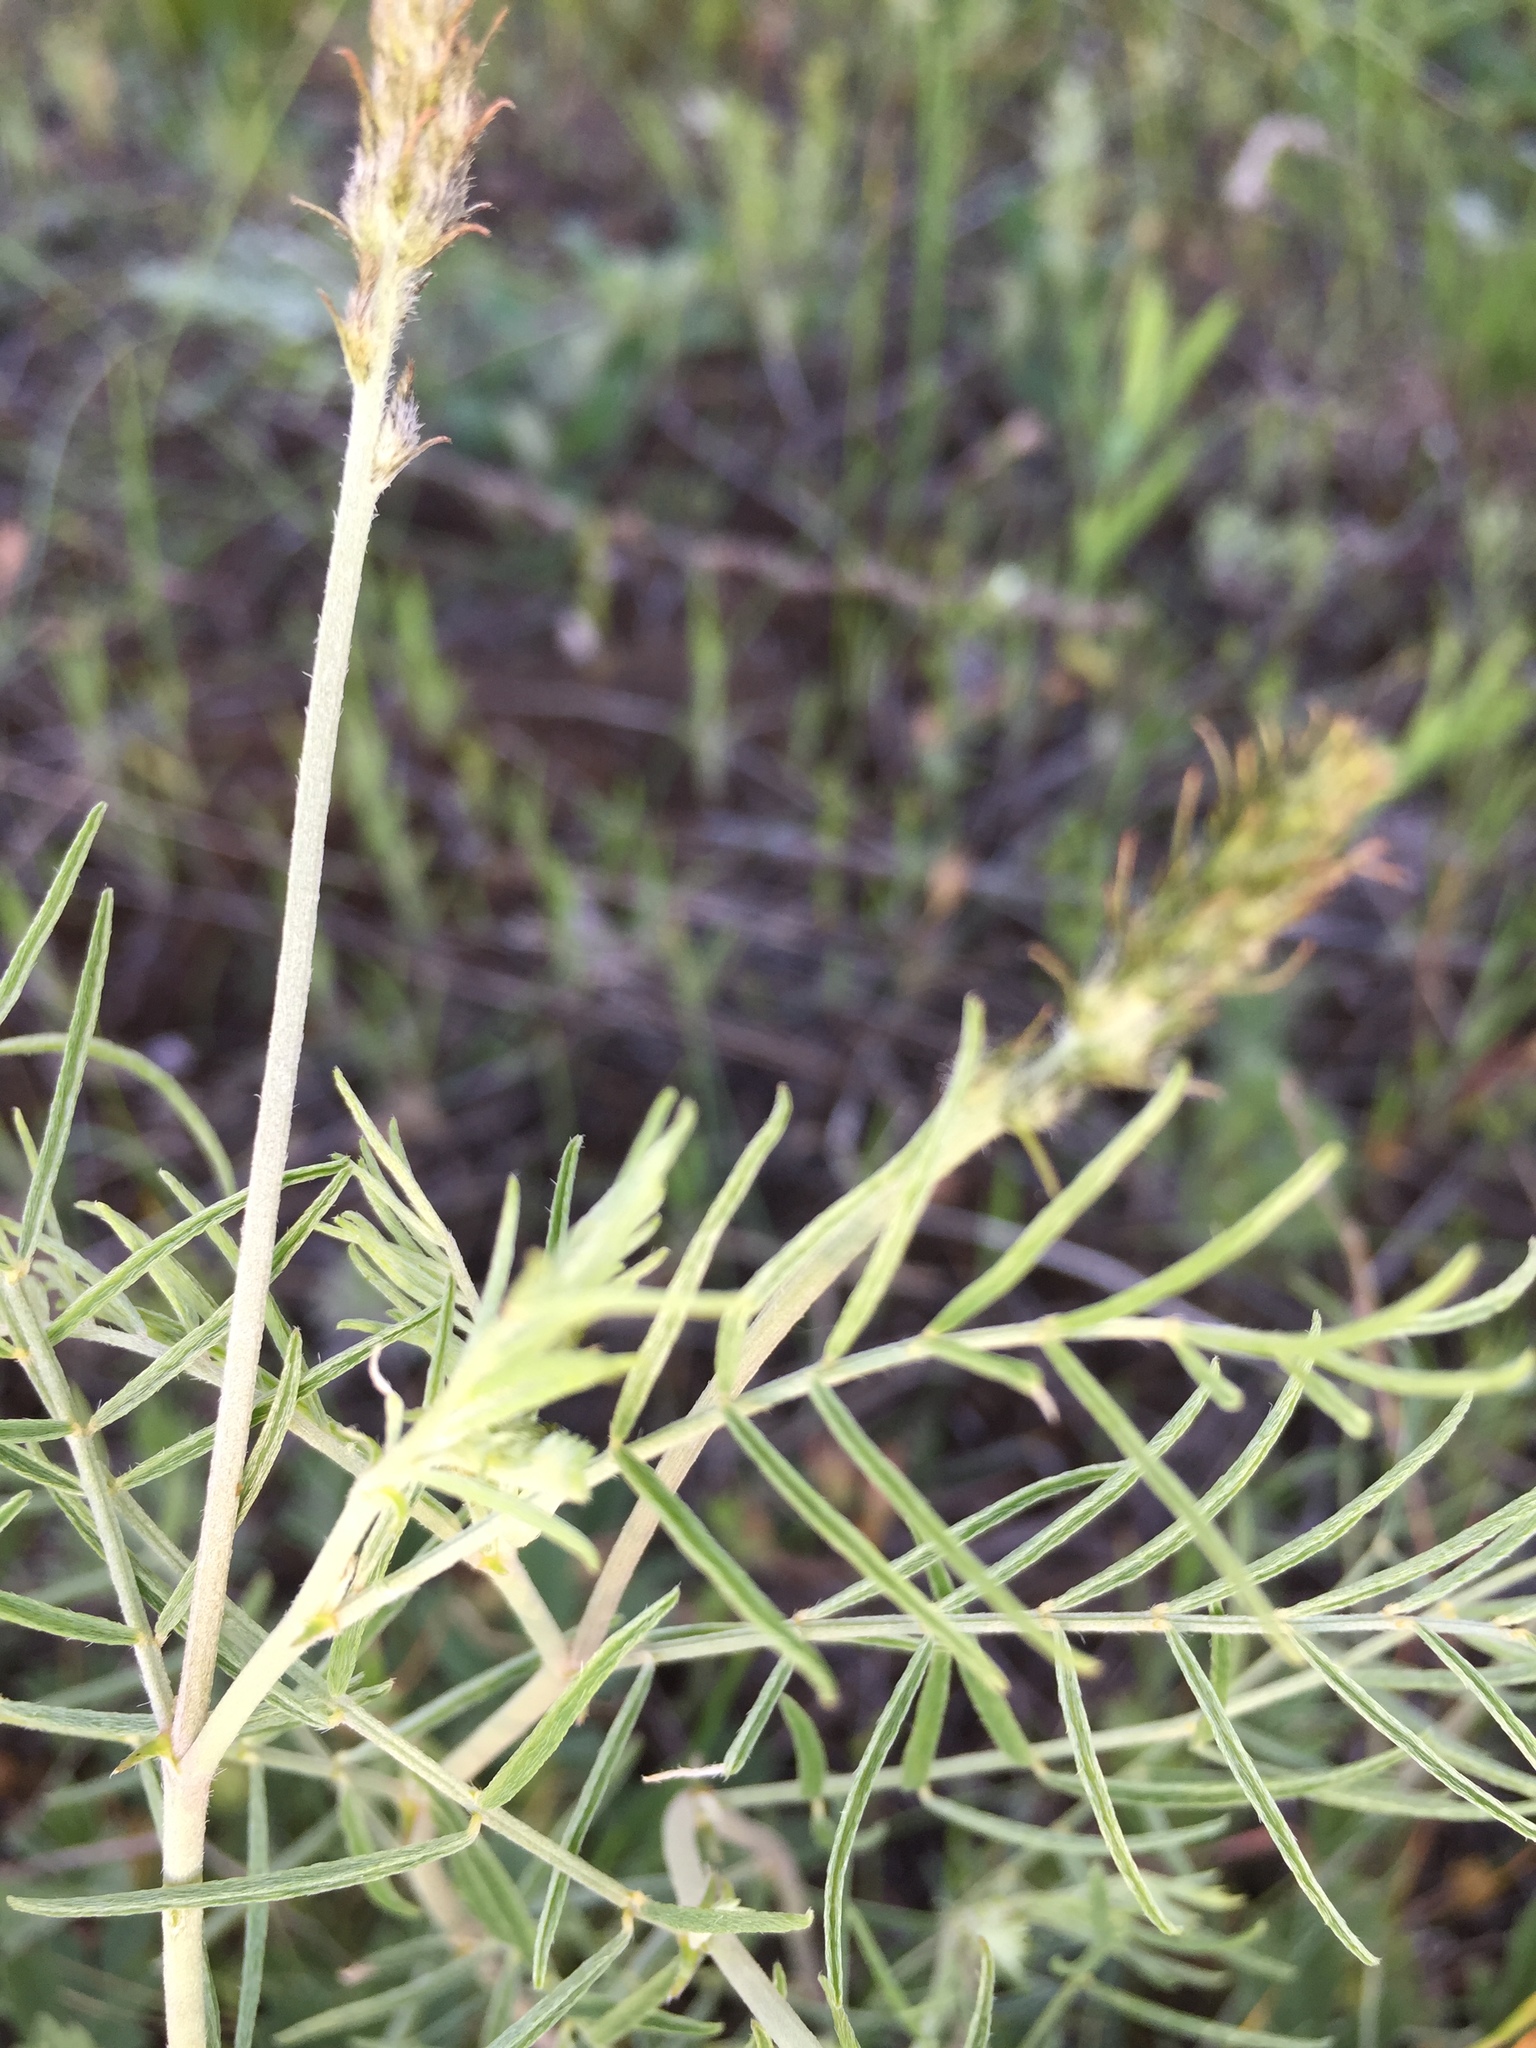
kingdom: Plantae
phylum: Tracheophyta
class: Magnoliopsida
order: Fabales
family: Fabaceae
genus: Astragalus
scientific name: Astragalus skvortsovii
